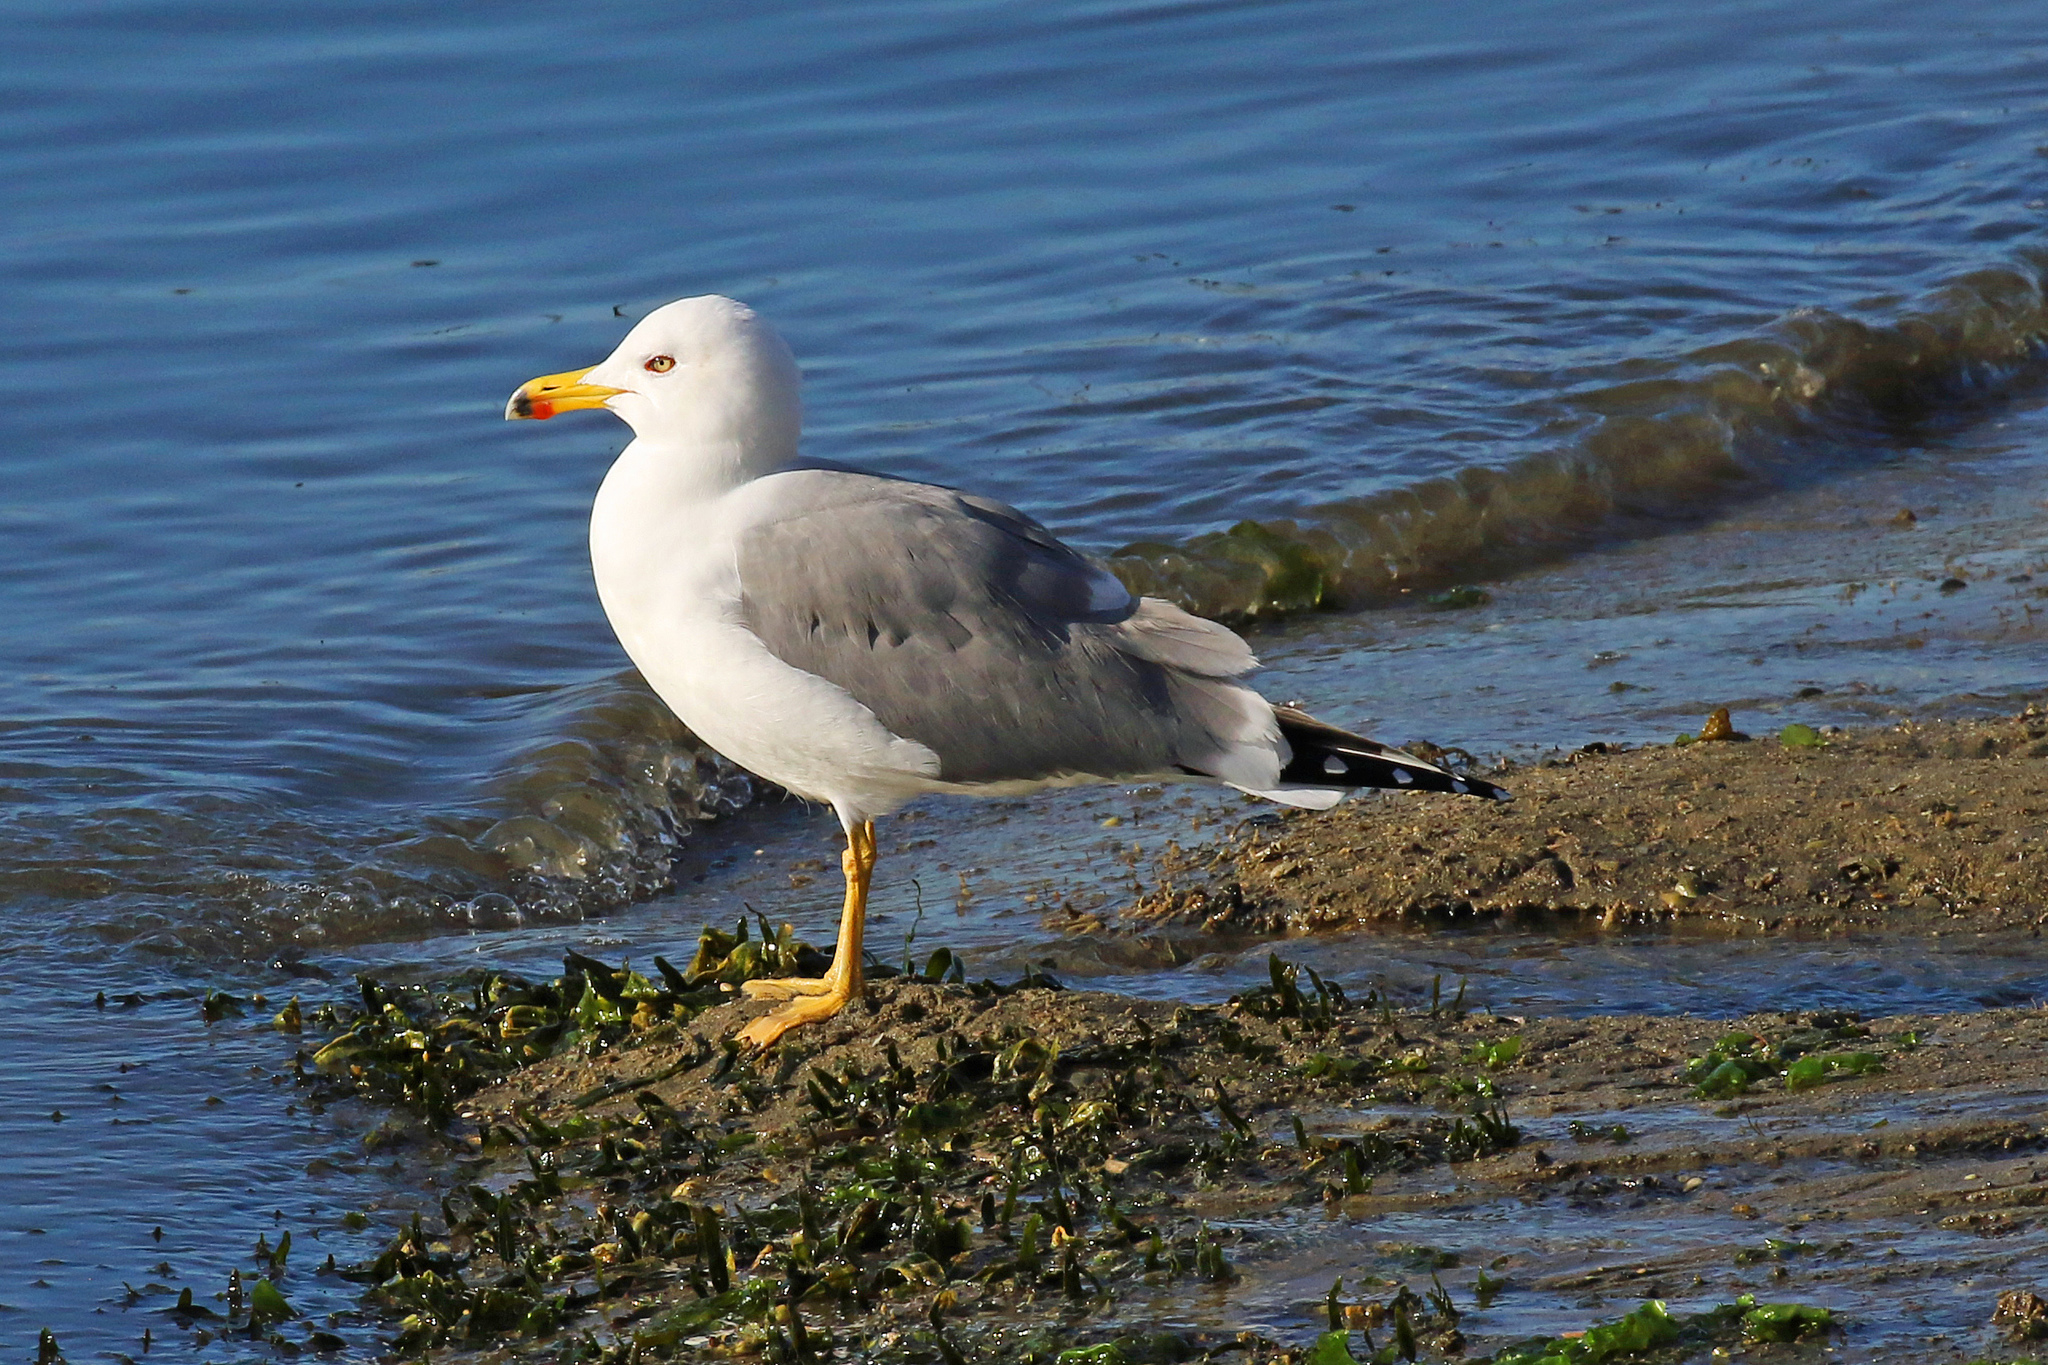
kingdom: Animalia
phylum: Chordata
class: Aves
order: Charadriiformes
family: Laridae
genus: Larus
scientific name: Larus michahellis
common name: Yellow-legged gull
